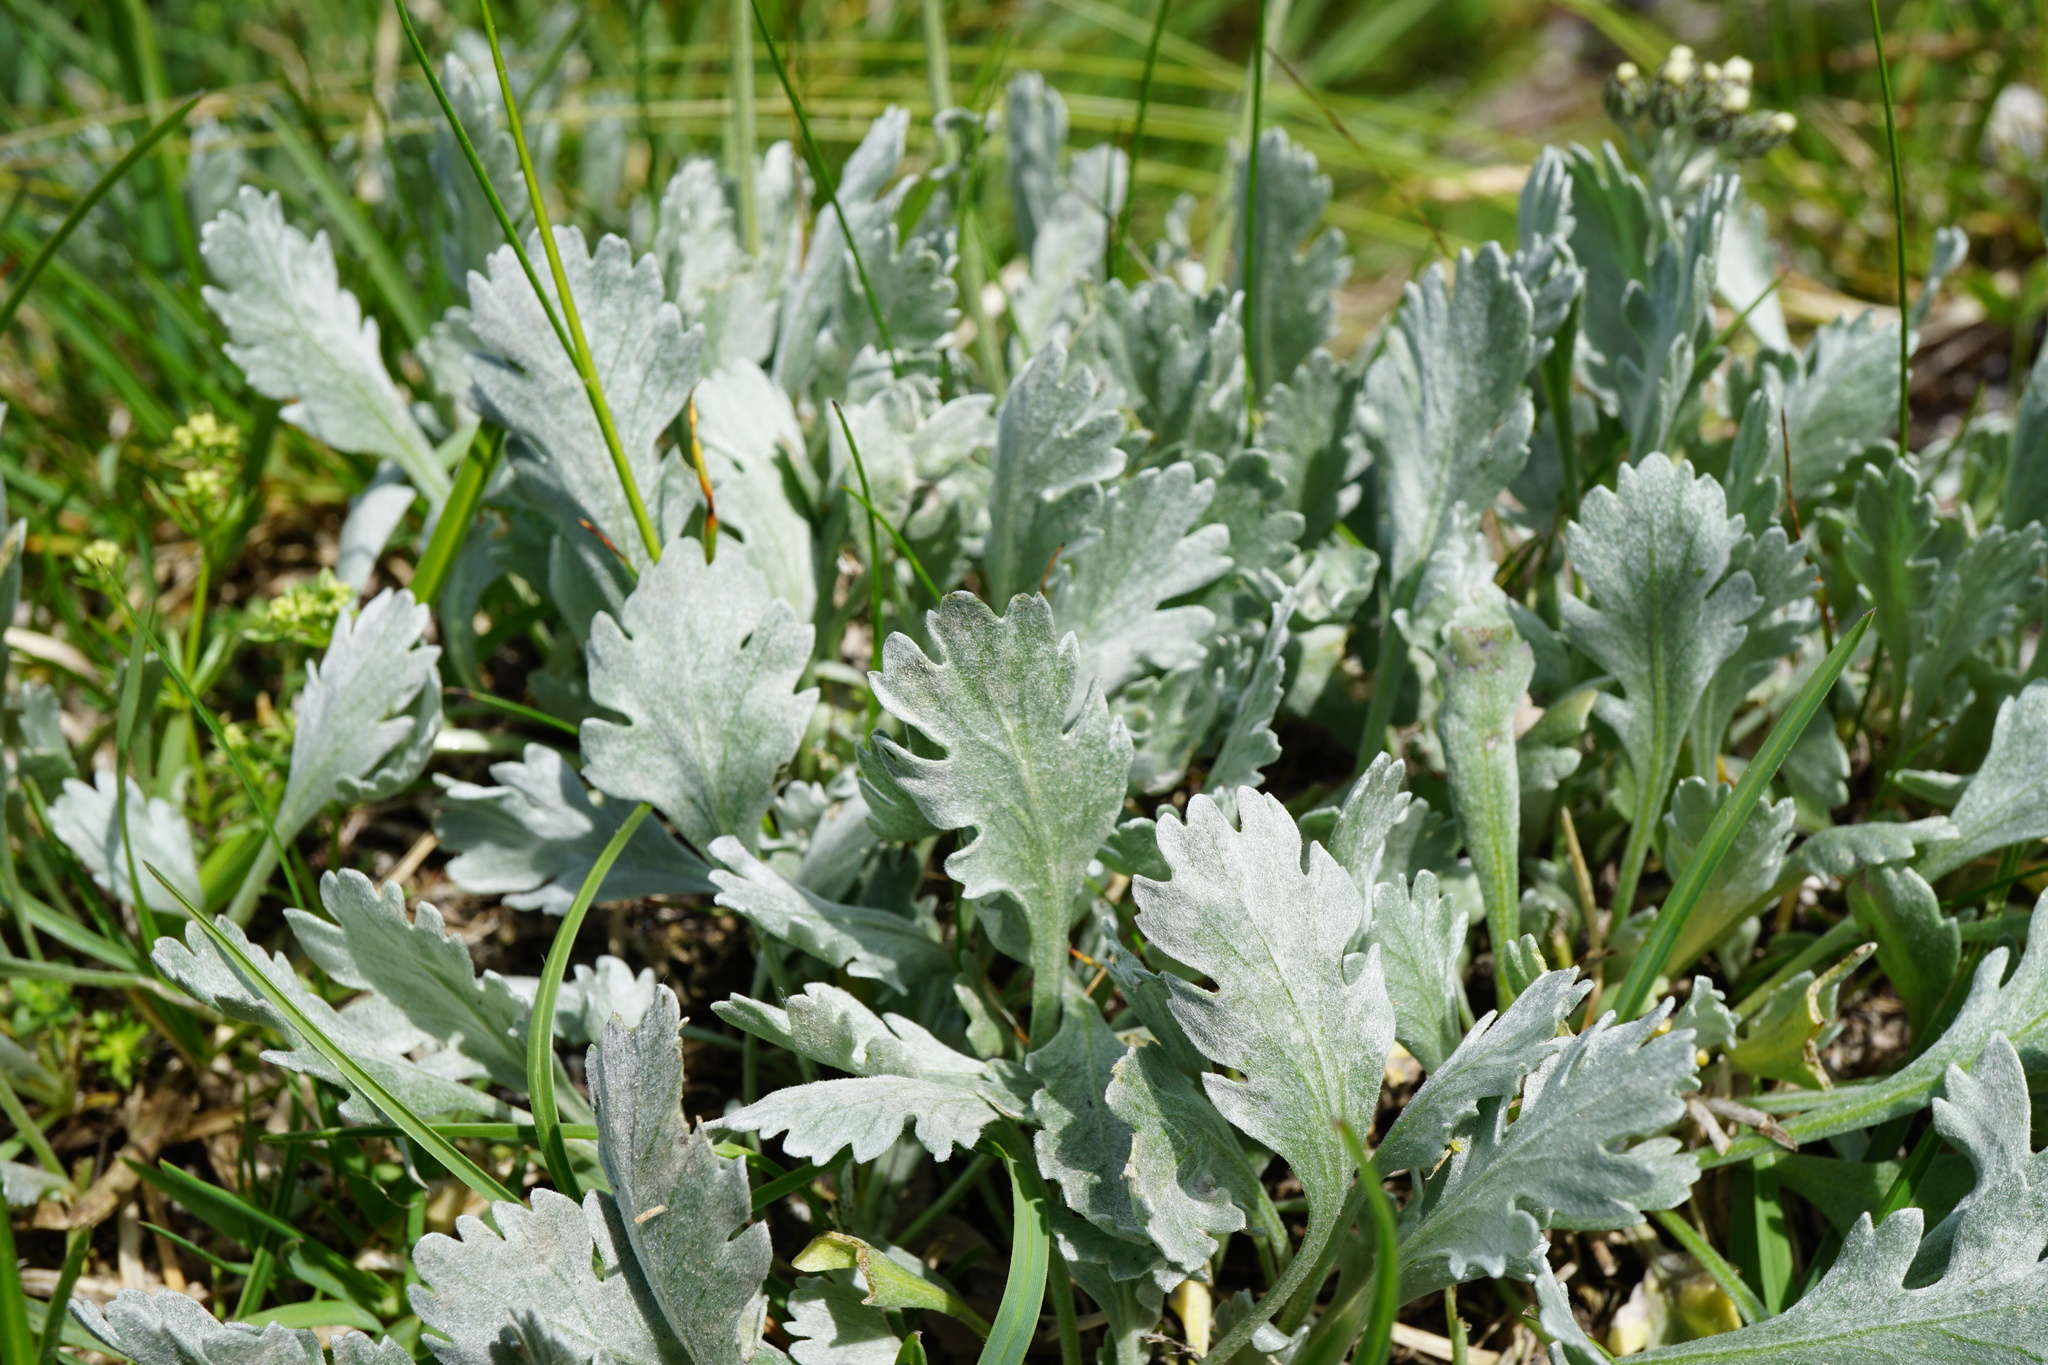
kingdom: Plantae
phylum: Tracheophyta
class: Magnoliopsida
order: Asterales
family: Asteraceae
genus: Achillea
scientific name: Achillea clavennae
